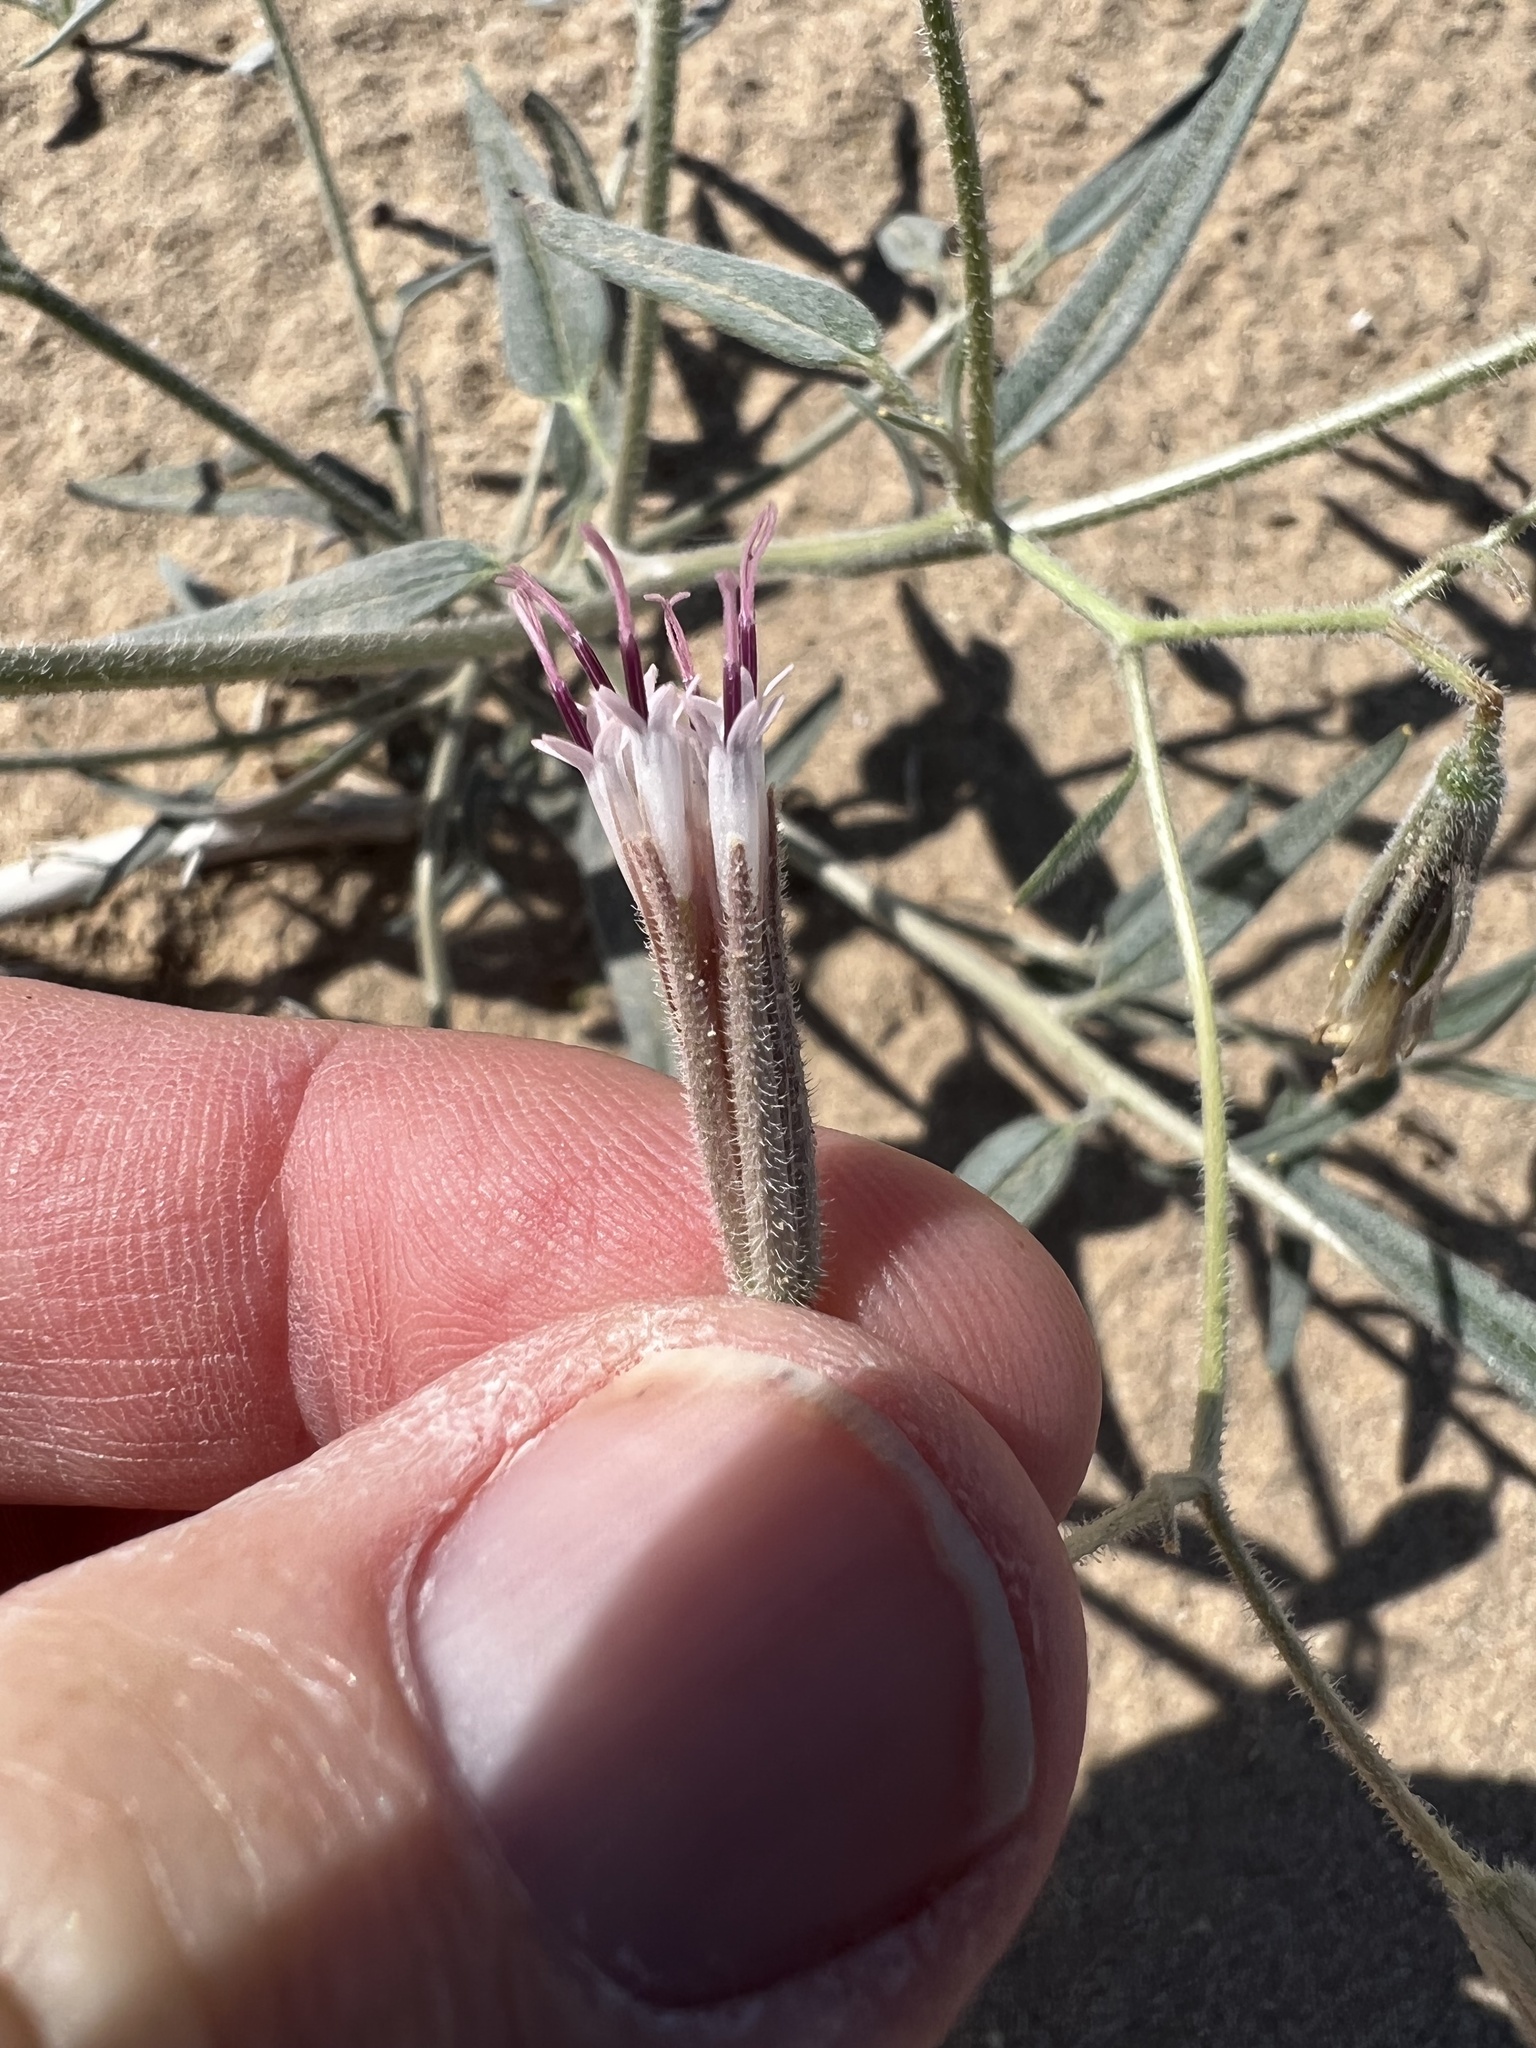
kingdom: Plantae
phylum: Tracheophyta
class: Magnoliopsida
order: Asterales
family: Asteraceae
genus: Palafoxia
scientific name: Palafoxia arida
